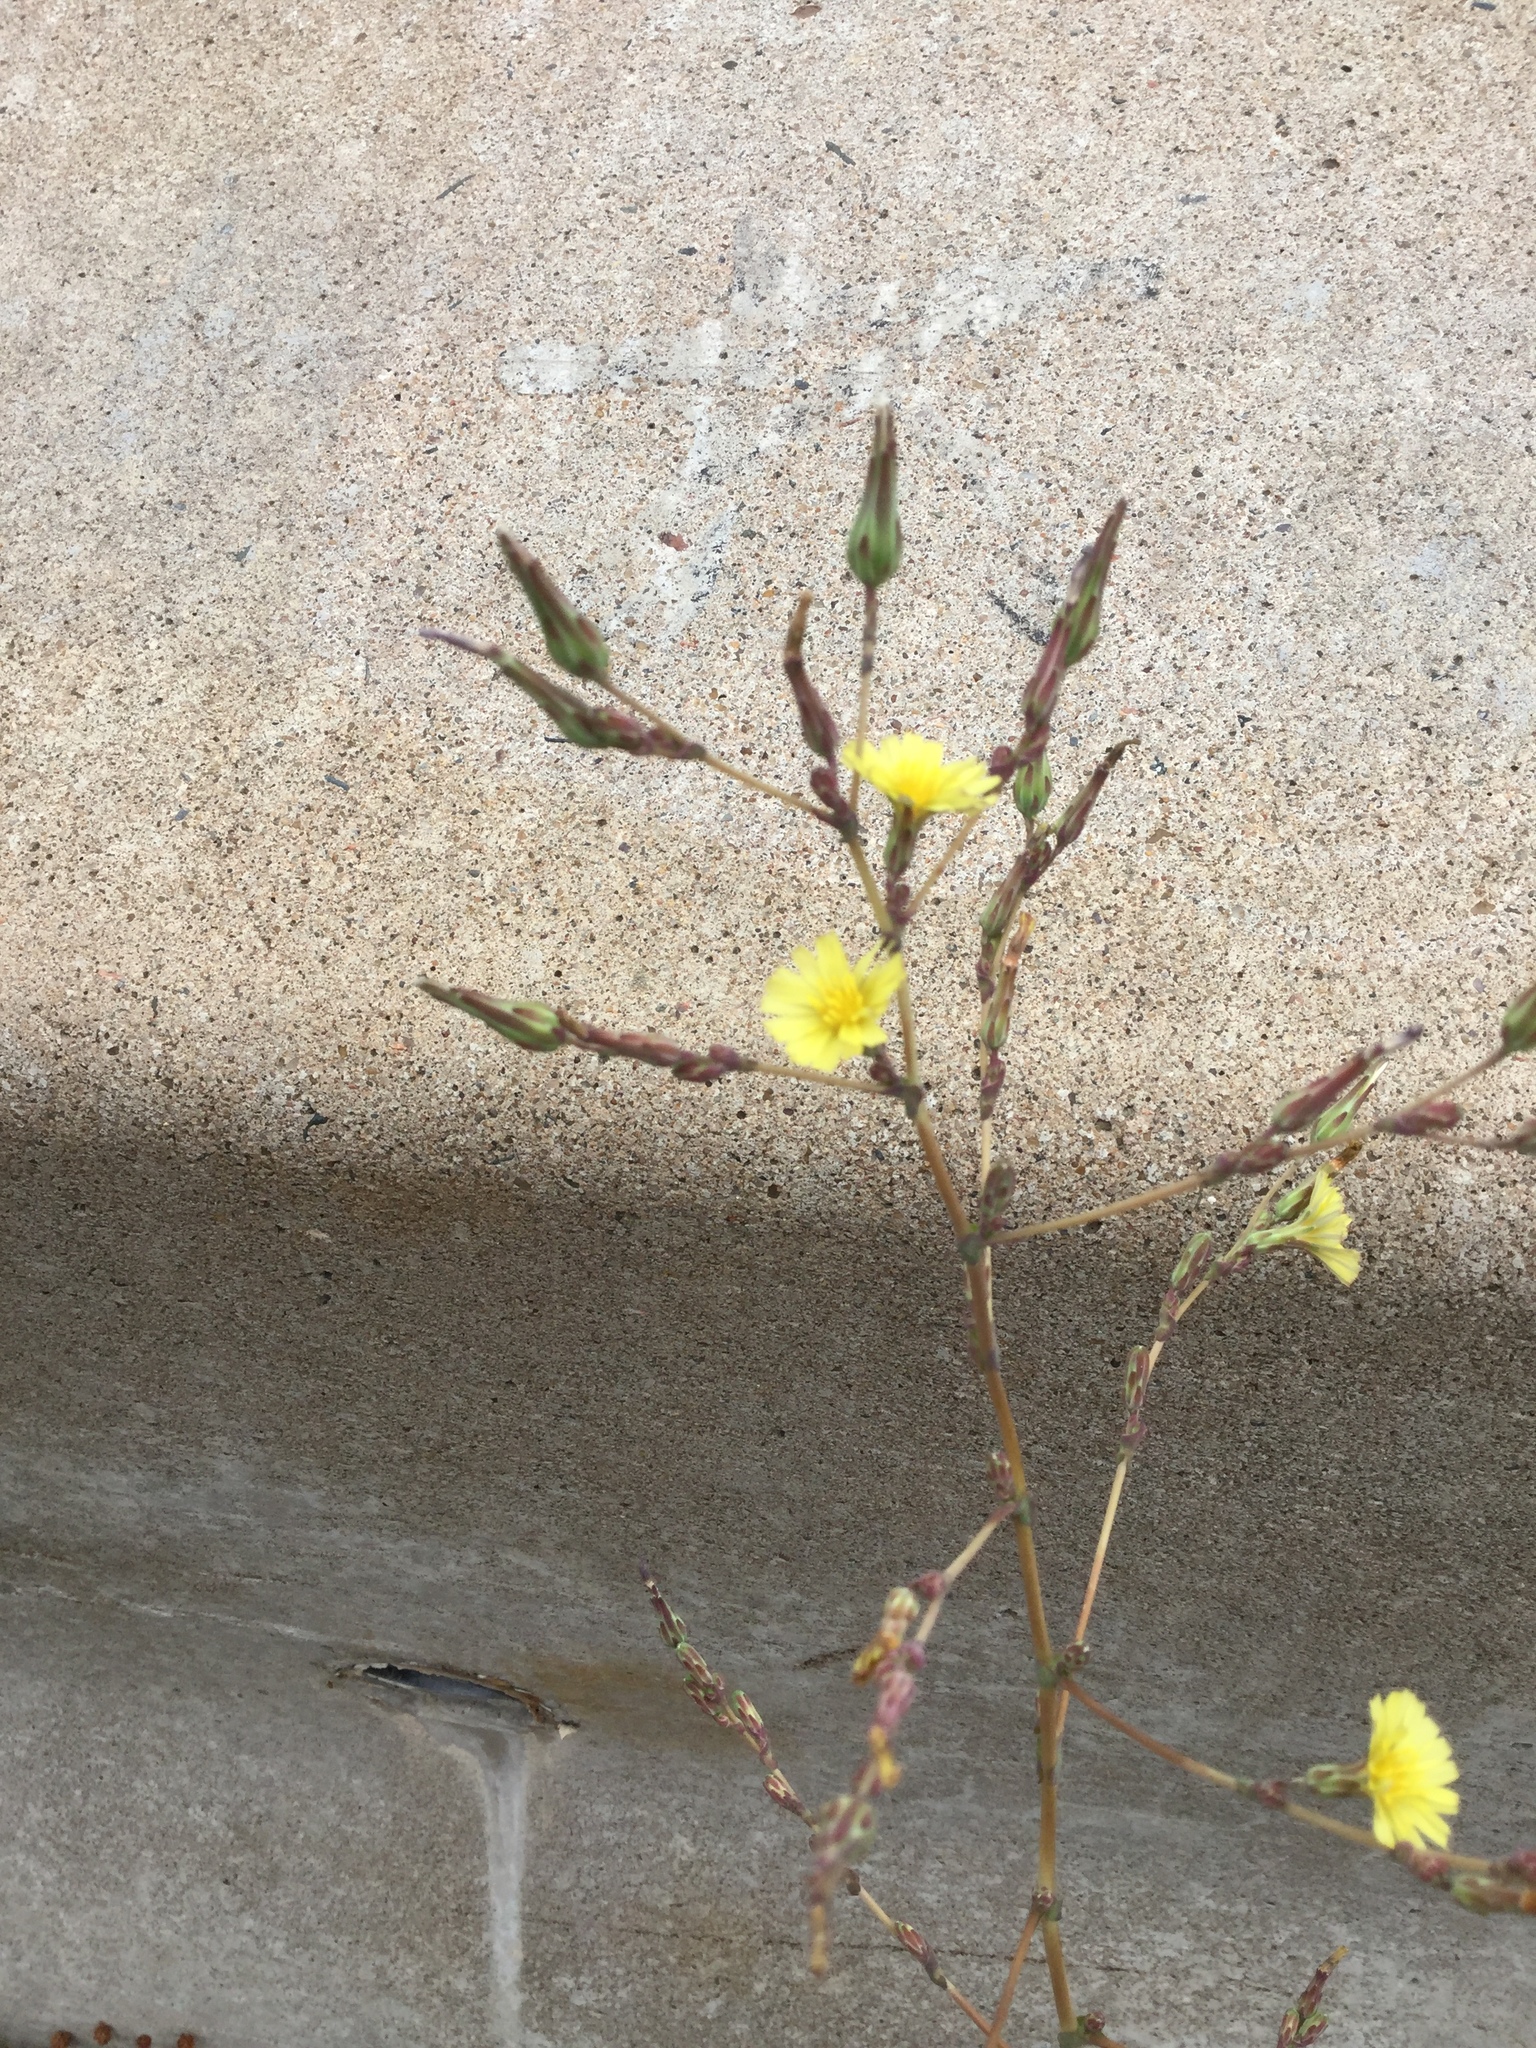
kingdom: Plantae
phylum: Tracheophyta
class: Magnoliopsida
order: Asterales
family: Asteraceae
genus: Lactuca
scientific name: Lactuca serriola
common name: Prickly lettuce
